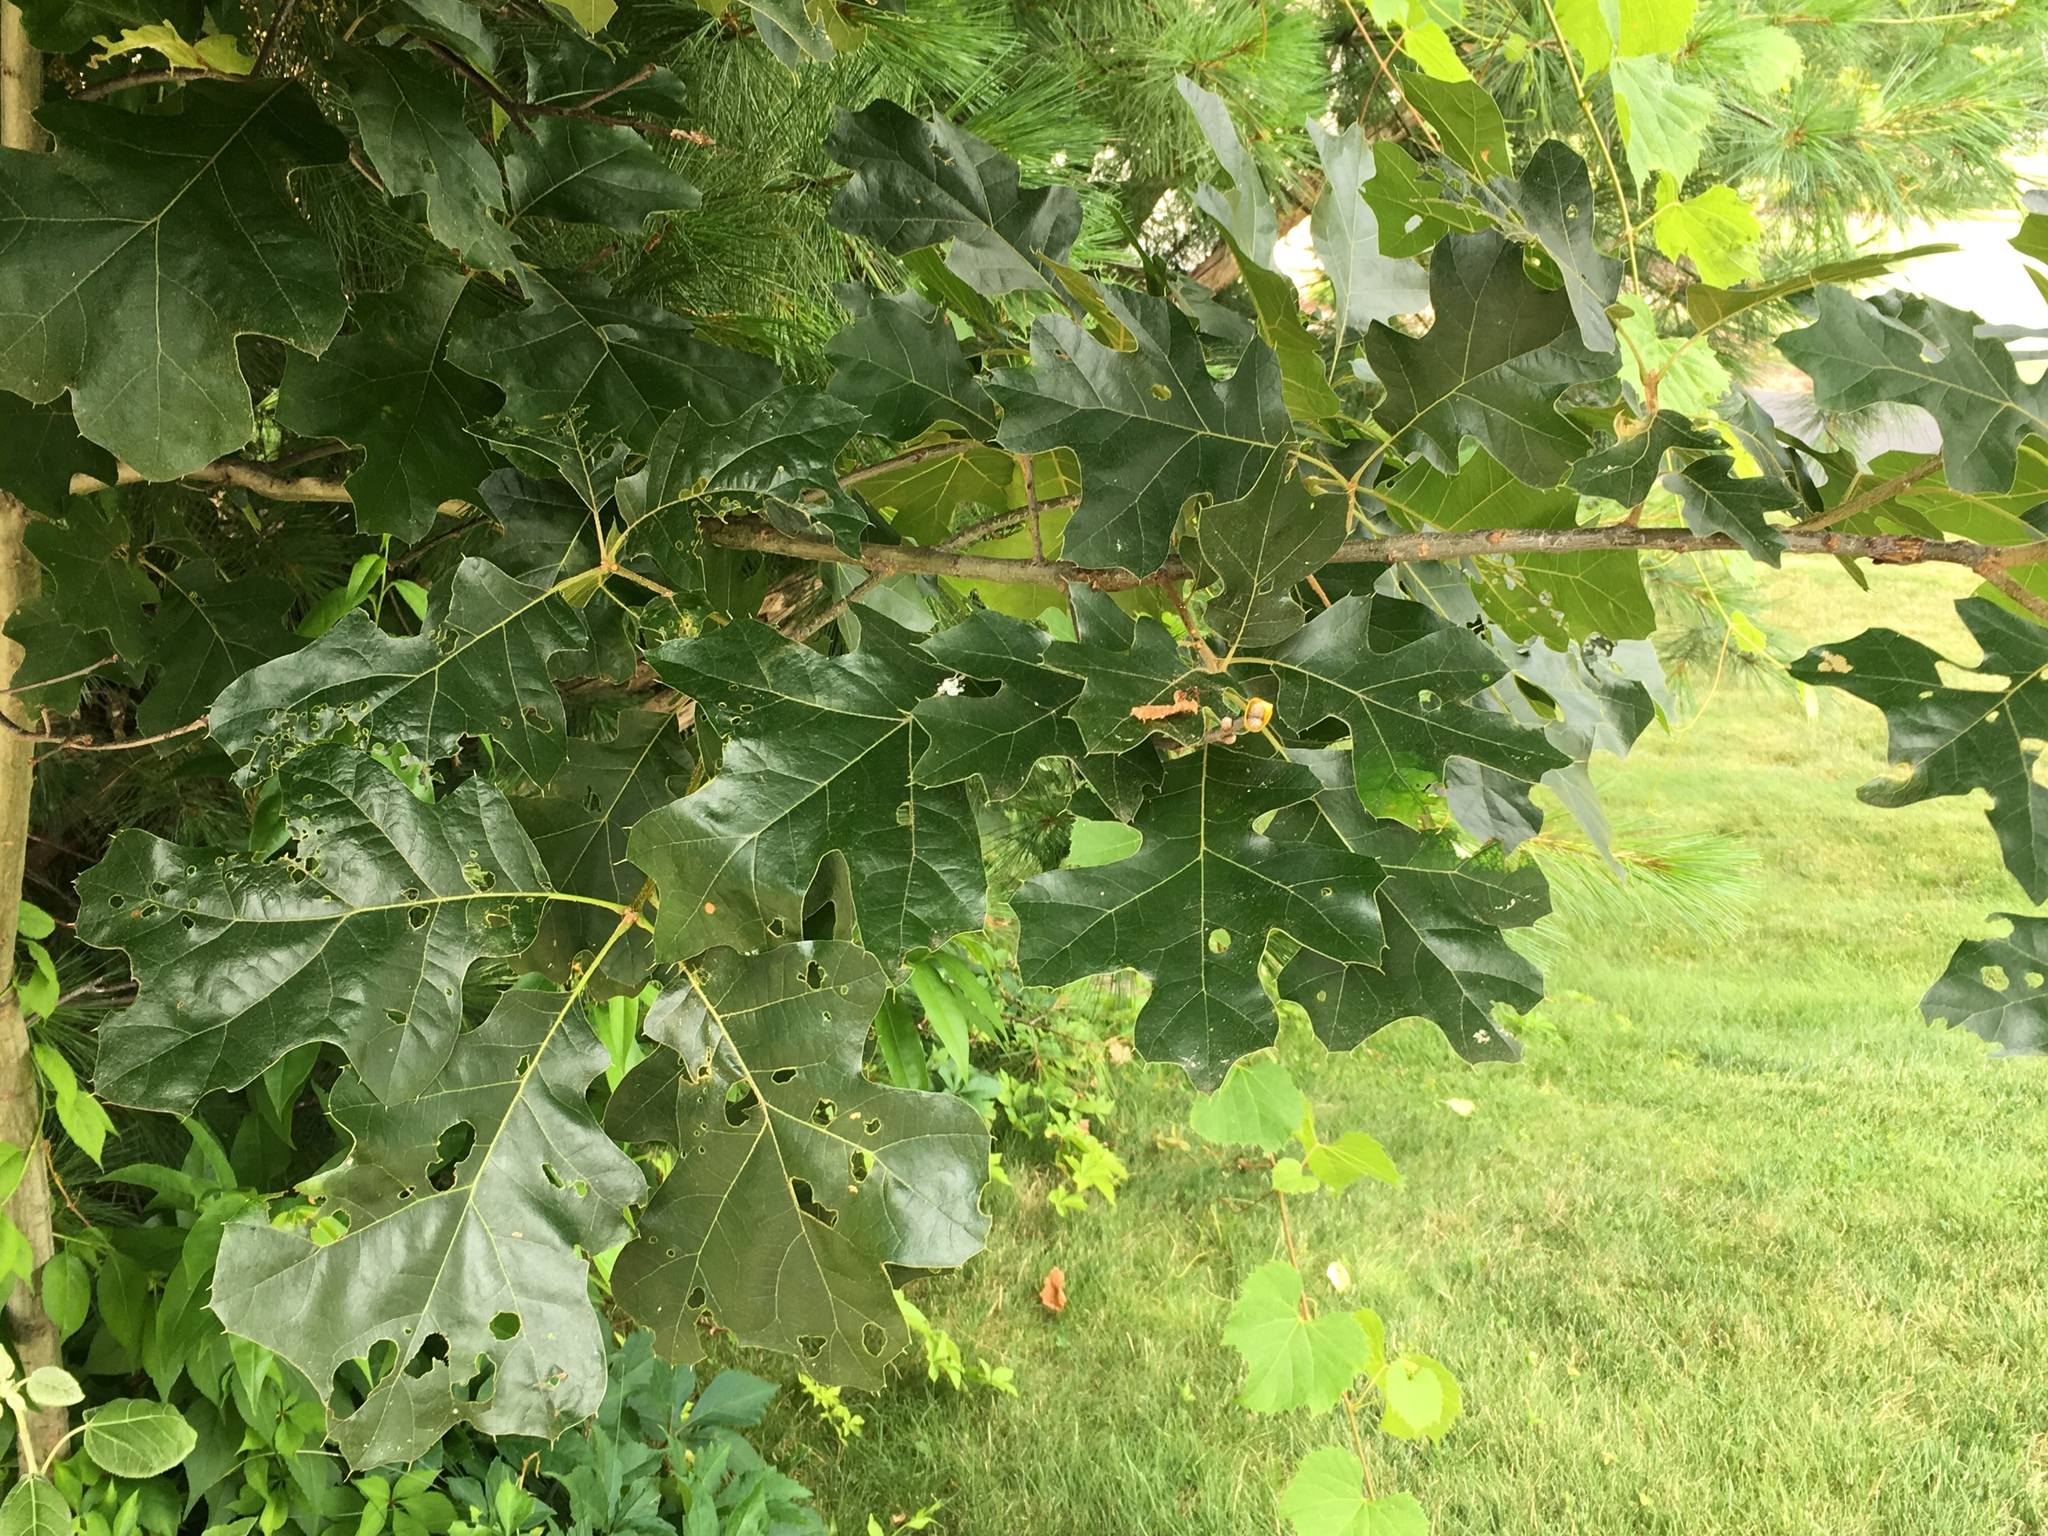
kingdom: Plantae
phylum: Tracheophyta
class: Magnoliopsida
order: Fagales
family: Fagaceae
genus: Quercus
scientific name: Quercus velutina
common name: Black oak
